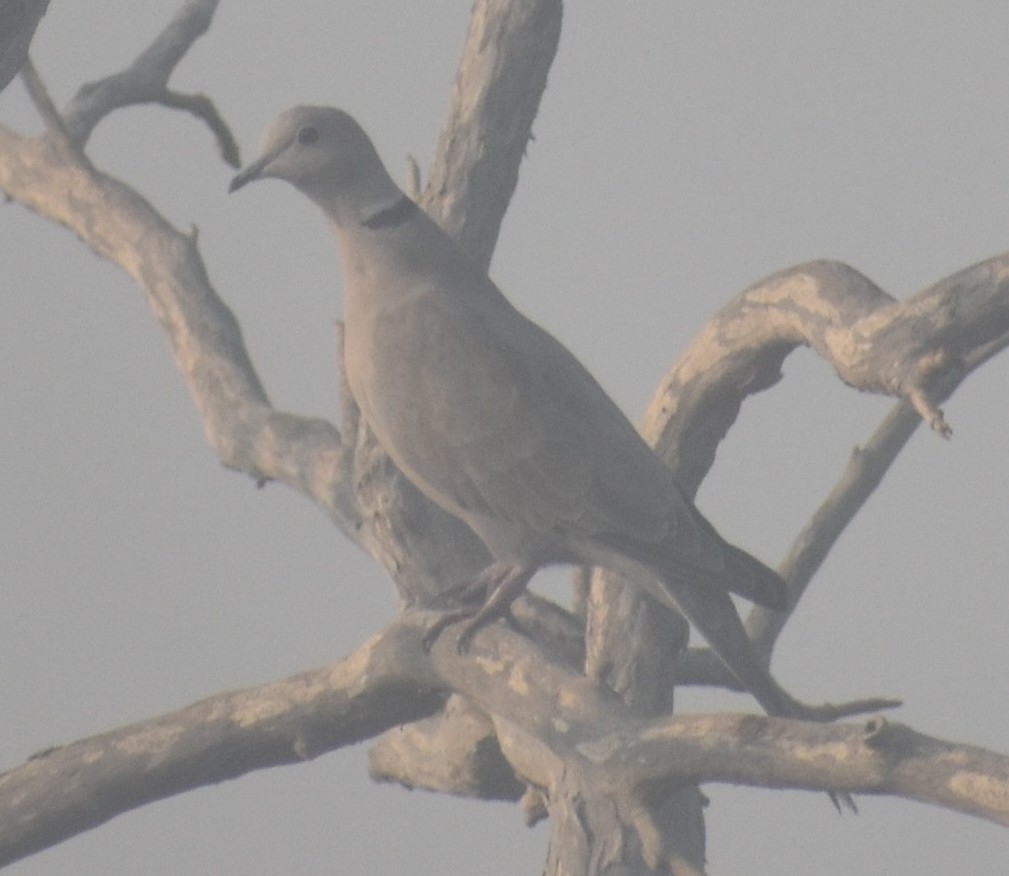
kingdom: Animalia
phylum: Chordata
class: Aves
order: Columbiformes
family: Columbidae
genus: Streptopelia
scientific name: Streptopelia decaocto
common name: Eurasian collared dove
